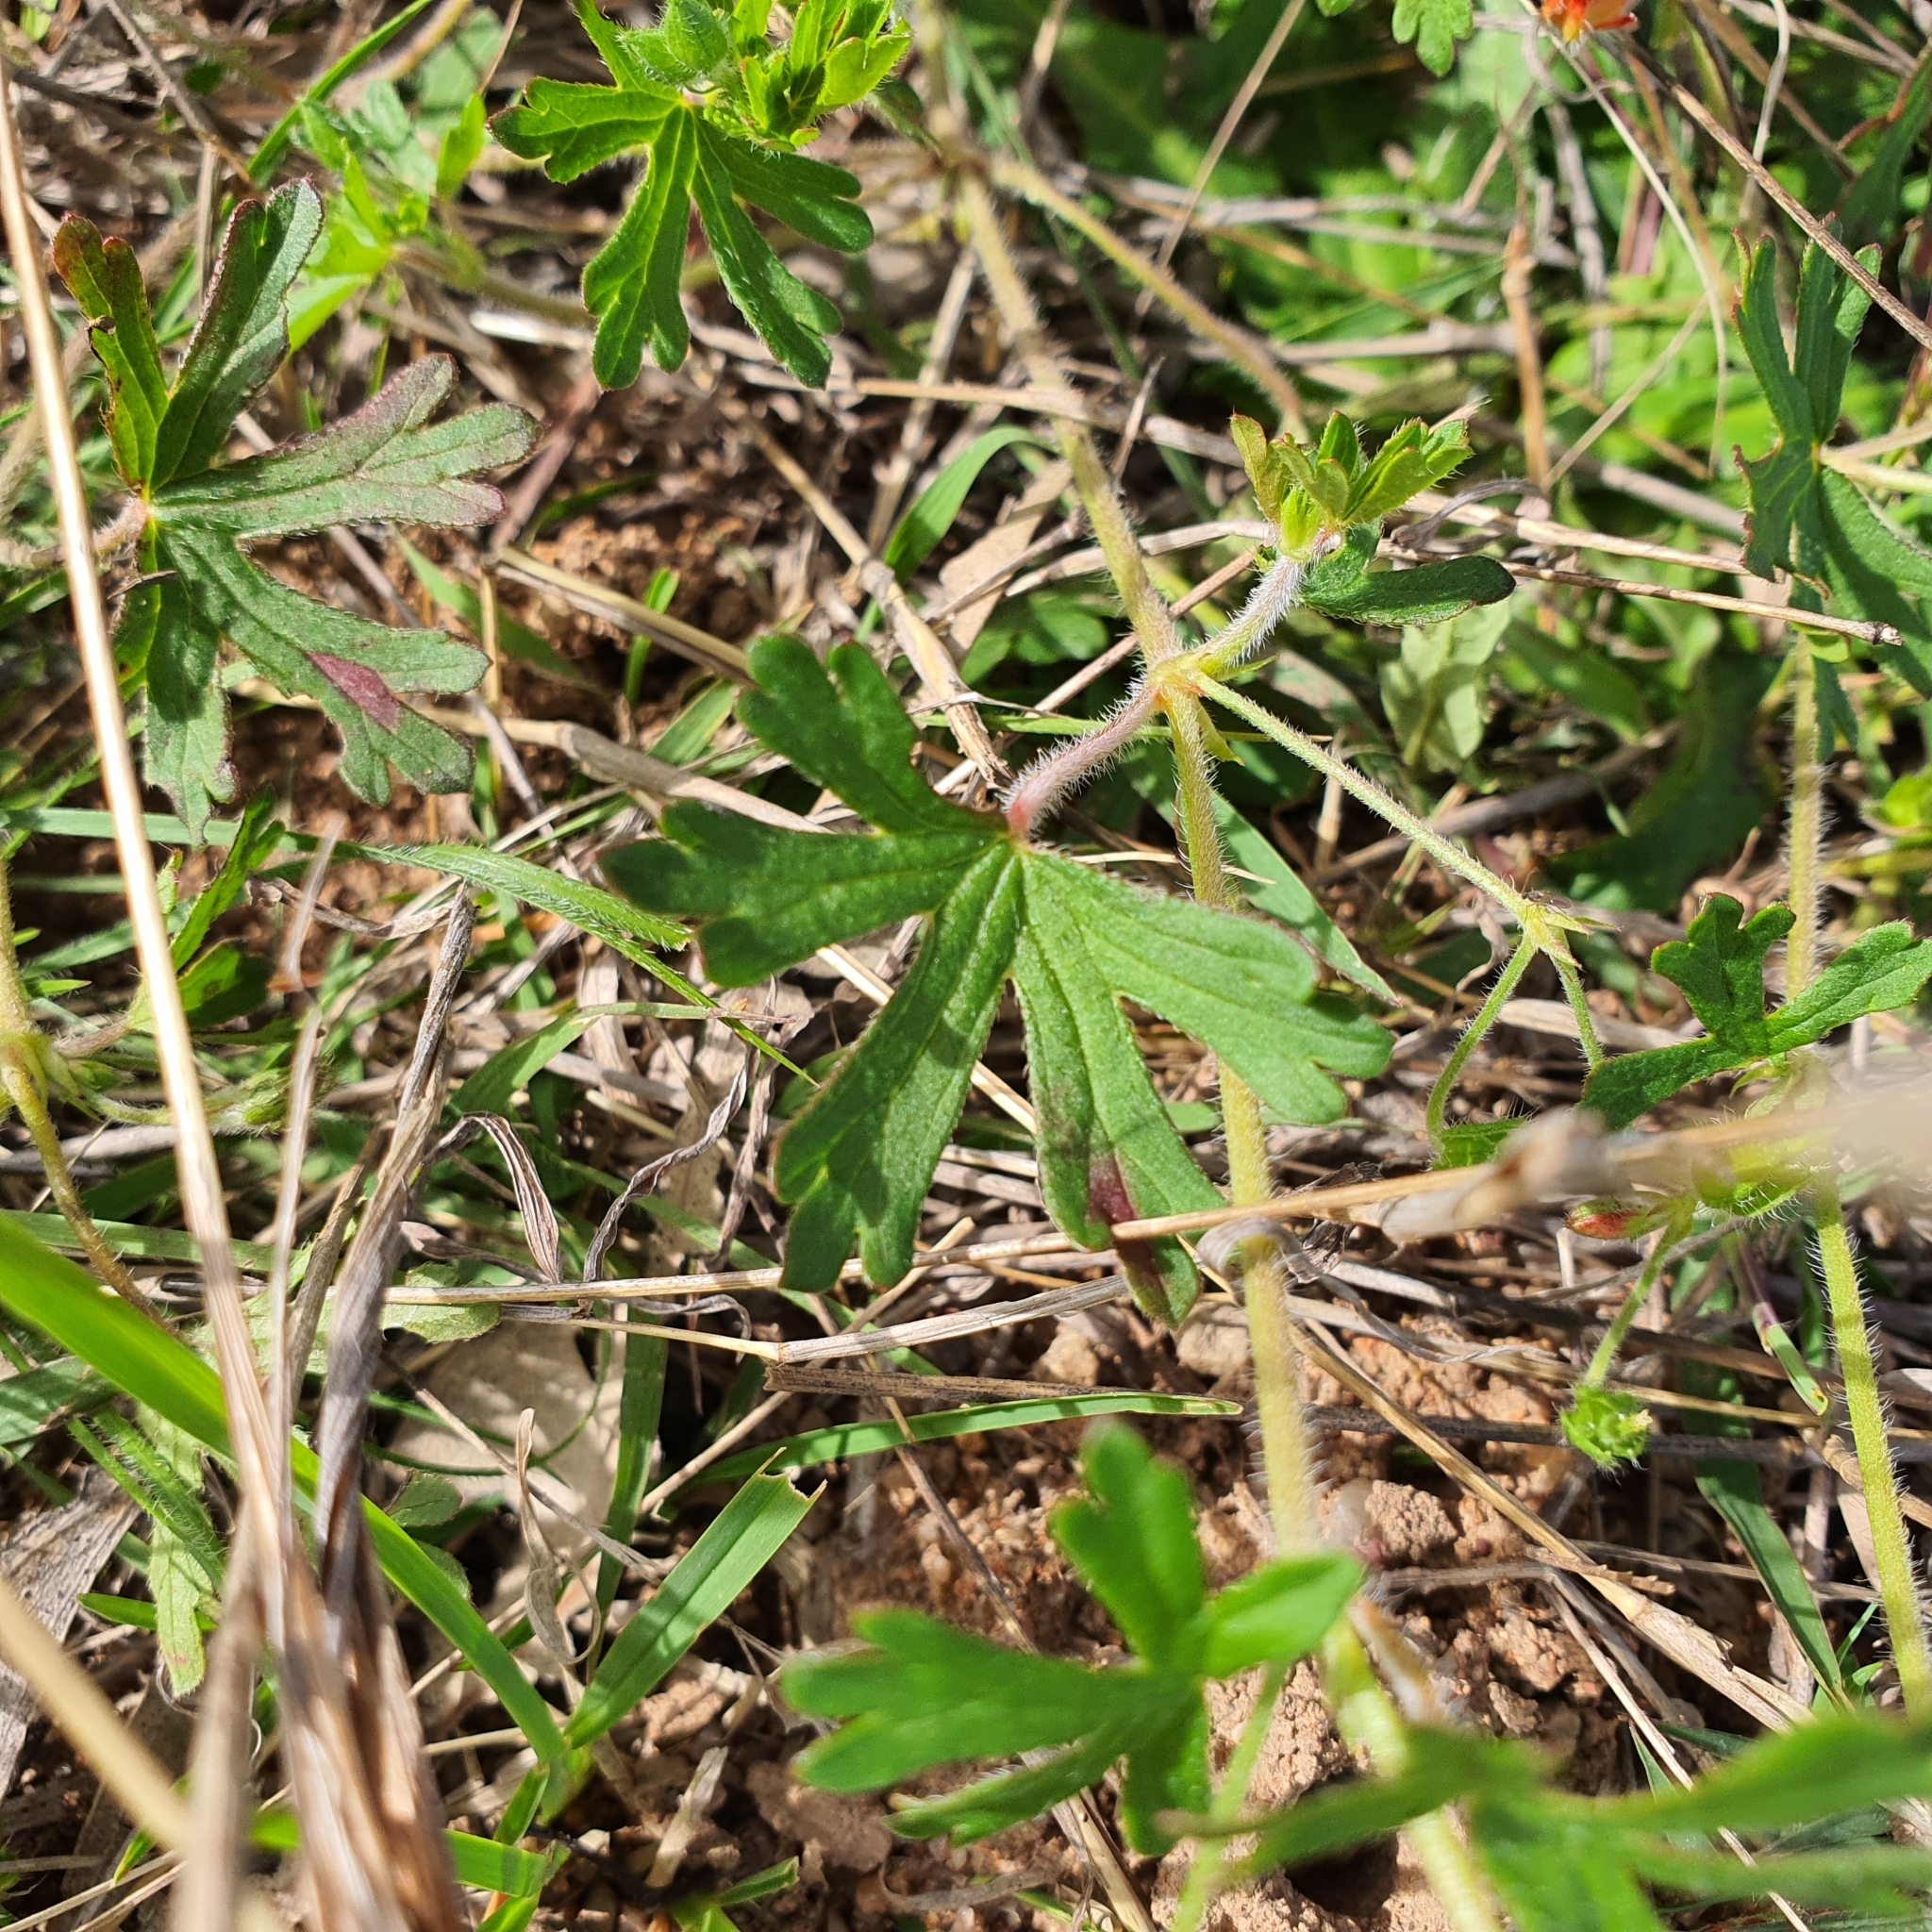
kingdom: Plantae
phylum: Tracheophyta
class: Magnoliopsida
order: Geraniales
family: Geraniaceae
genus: Geranium
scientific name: Geranium solanderi
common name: Solander's geranium
